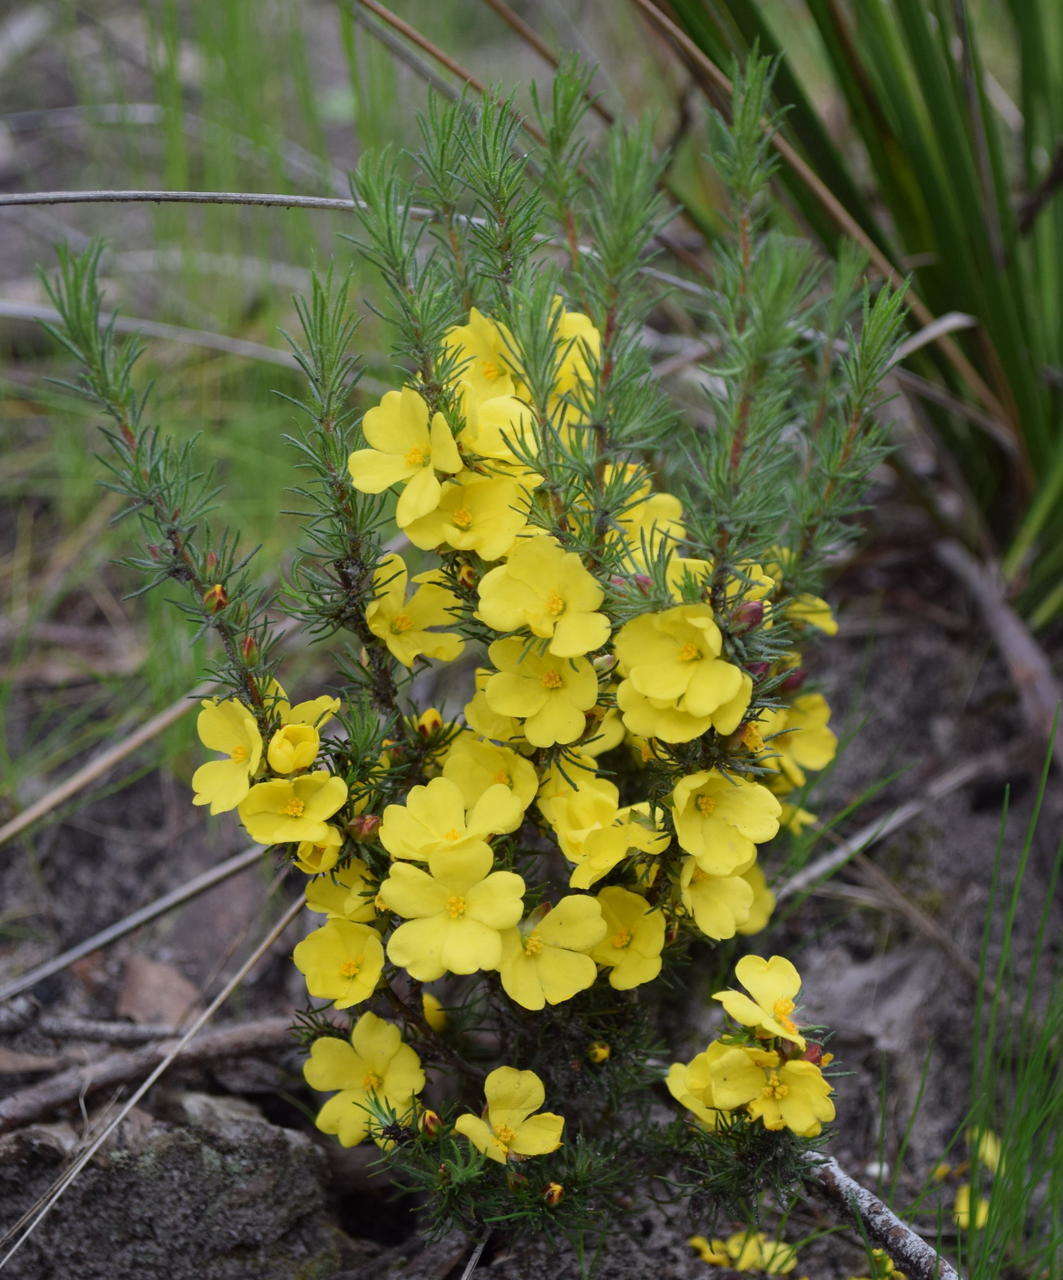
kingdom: Plantae
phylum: Tracheophyta
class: Magnoliopsida
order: Dilleniales
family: Dilleniaceae
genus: Hibbertia
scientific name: Hibbertia prostrata
